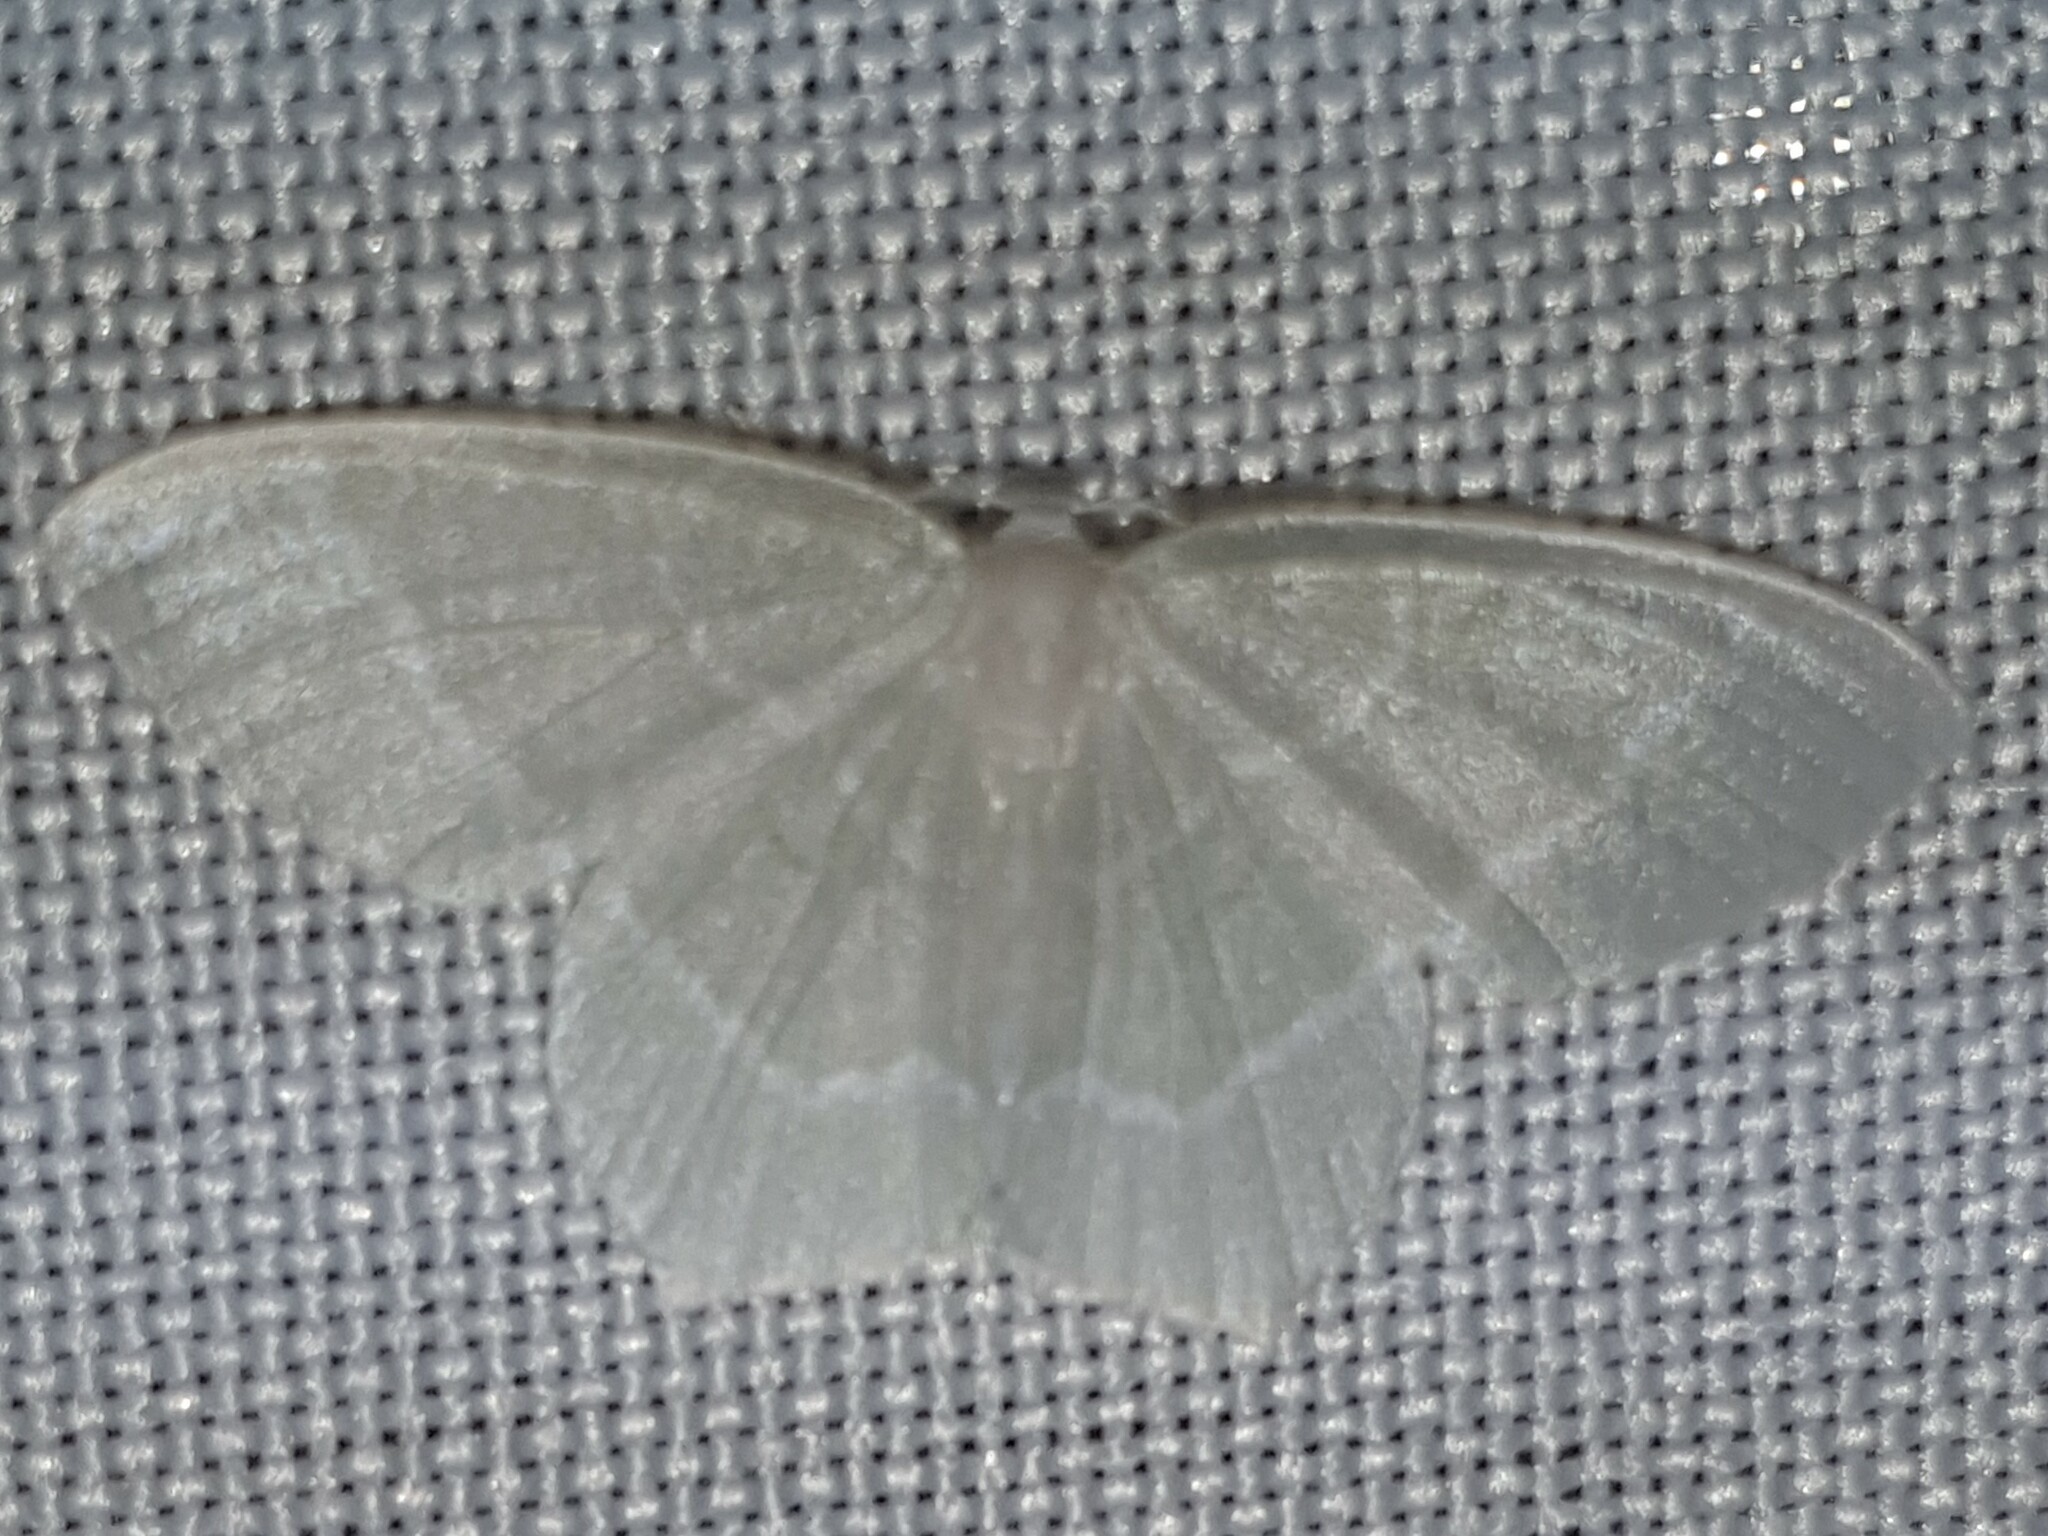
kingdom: Animalia
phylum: Arthropoda
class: Insecta
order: Lepidoptera
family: Geometridae
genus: Jodis
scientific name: Jodis lactearia
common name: Little emerald
